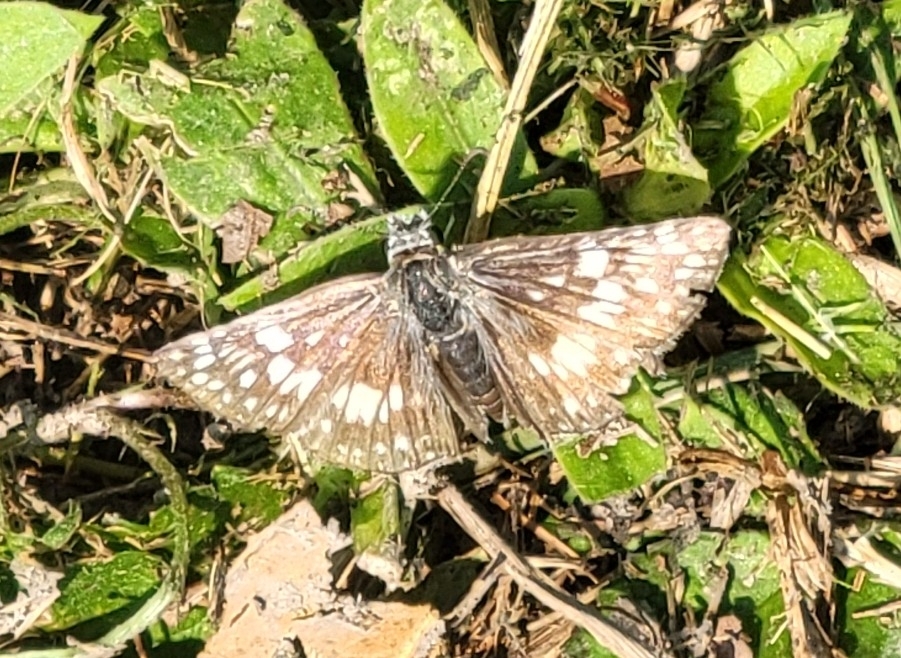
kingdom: Animalia
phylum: Arthropoda
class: Insecta
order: Lepidoptera
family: Hesperiidae
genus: Burnsius
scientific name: Burnsius communis
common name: Common checkered-skipper
